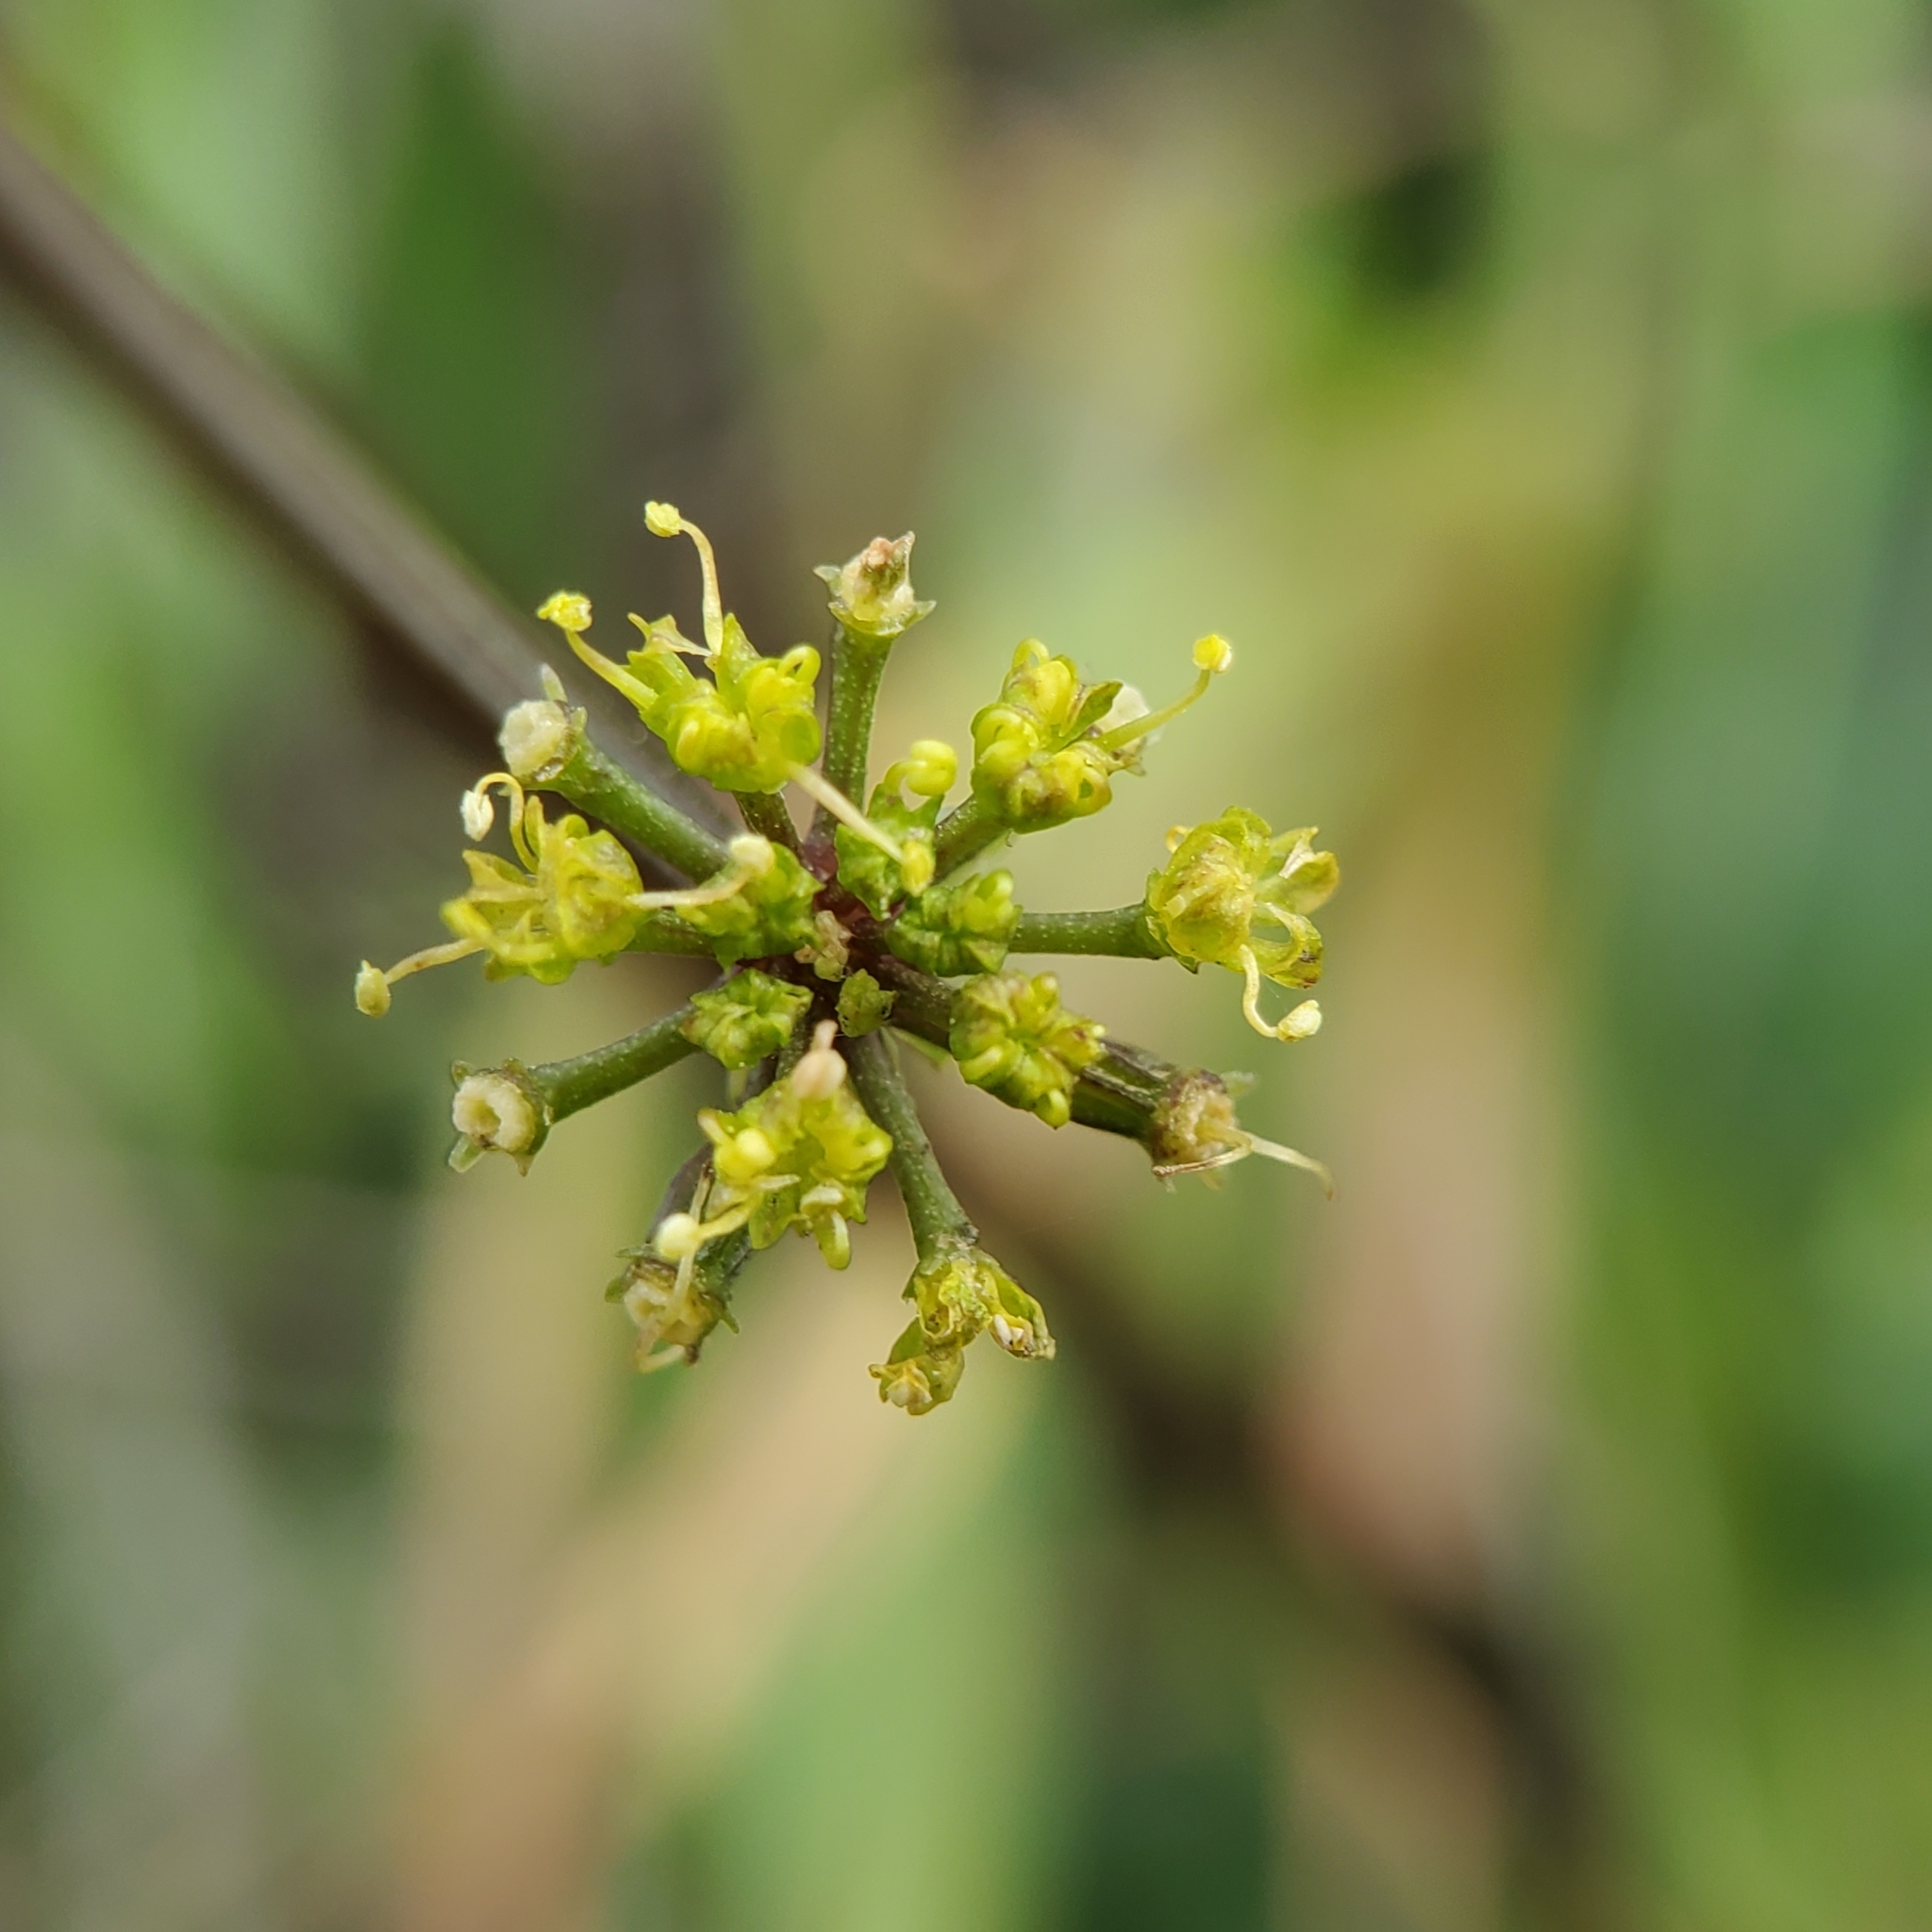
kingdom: Plantae
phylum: Tracheophyta
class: Magnoliopsida
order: Apiales
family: Apiaceae
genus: Tauschia
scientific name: Tauschia arguta
